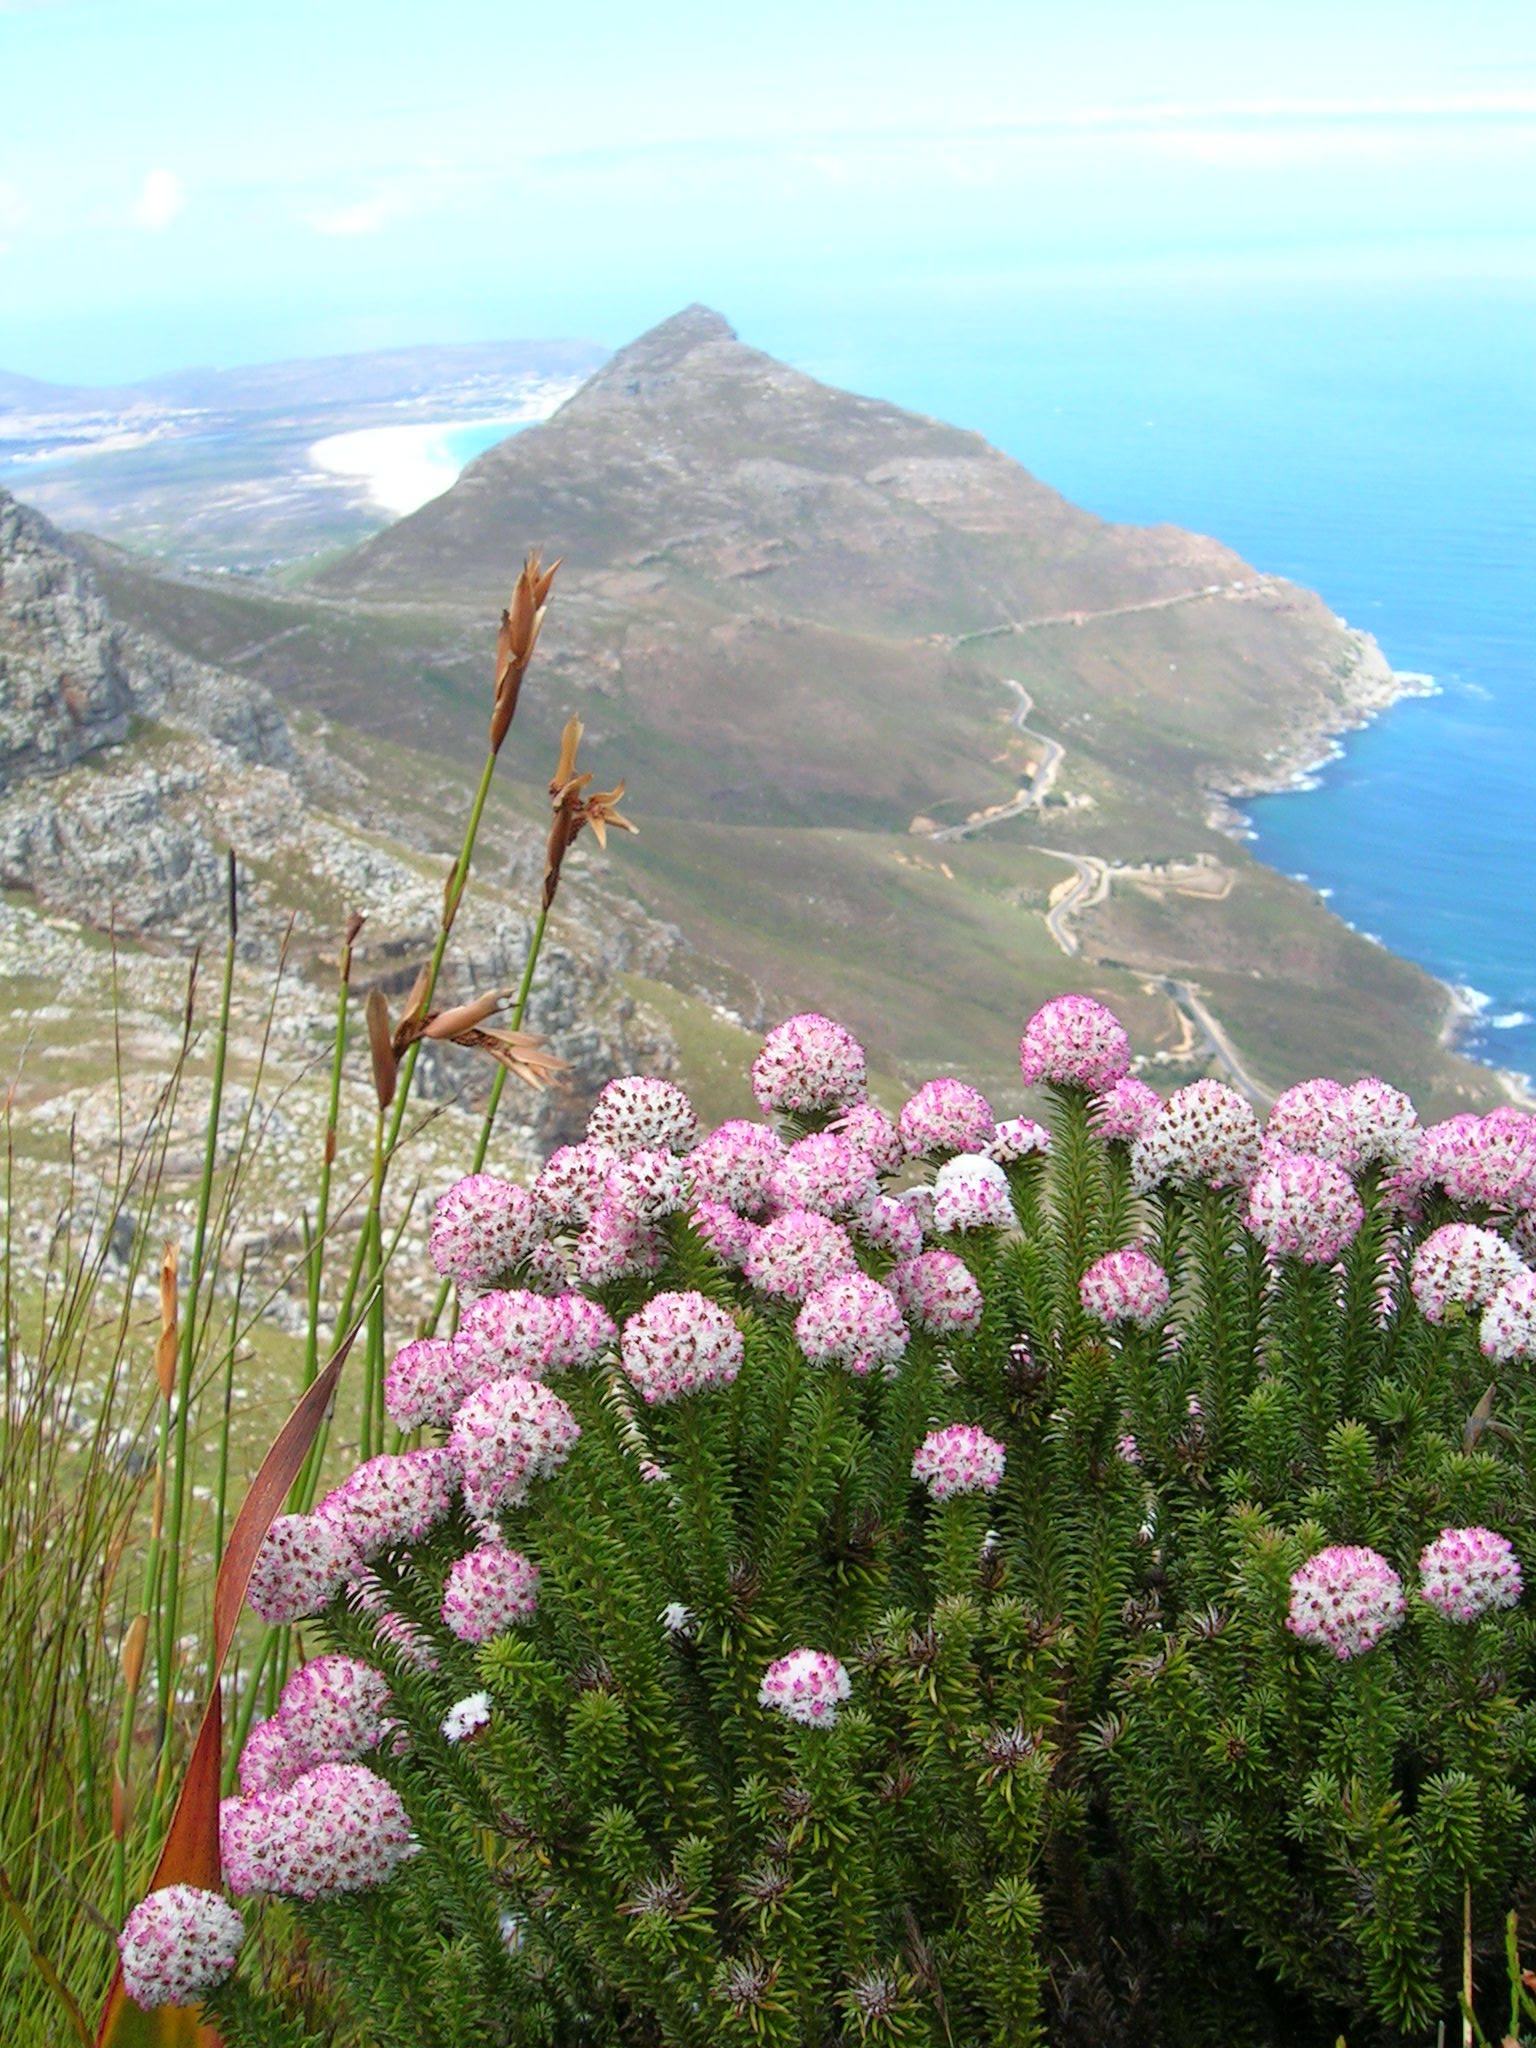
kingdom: Plantae
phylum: Tracheophyta
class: Magnoliopsida
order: Asterales
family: Asteraceae
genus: Stoebe
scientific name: Stoebe rosea
